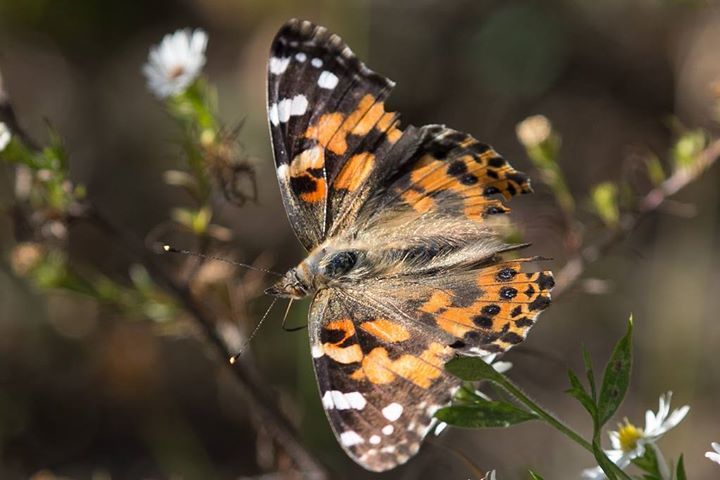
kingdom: Animalia
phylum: Arthropoda
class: Insecta
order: Lepidoptera
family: Nymphalidae
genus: Vanessa
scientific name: Vanessa cardui
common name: Painted lady
